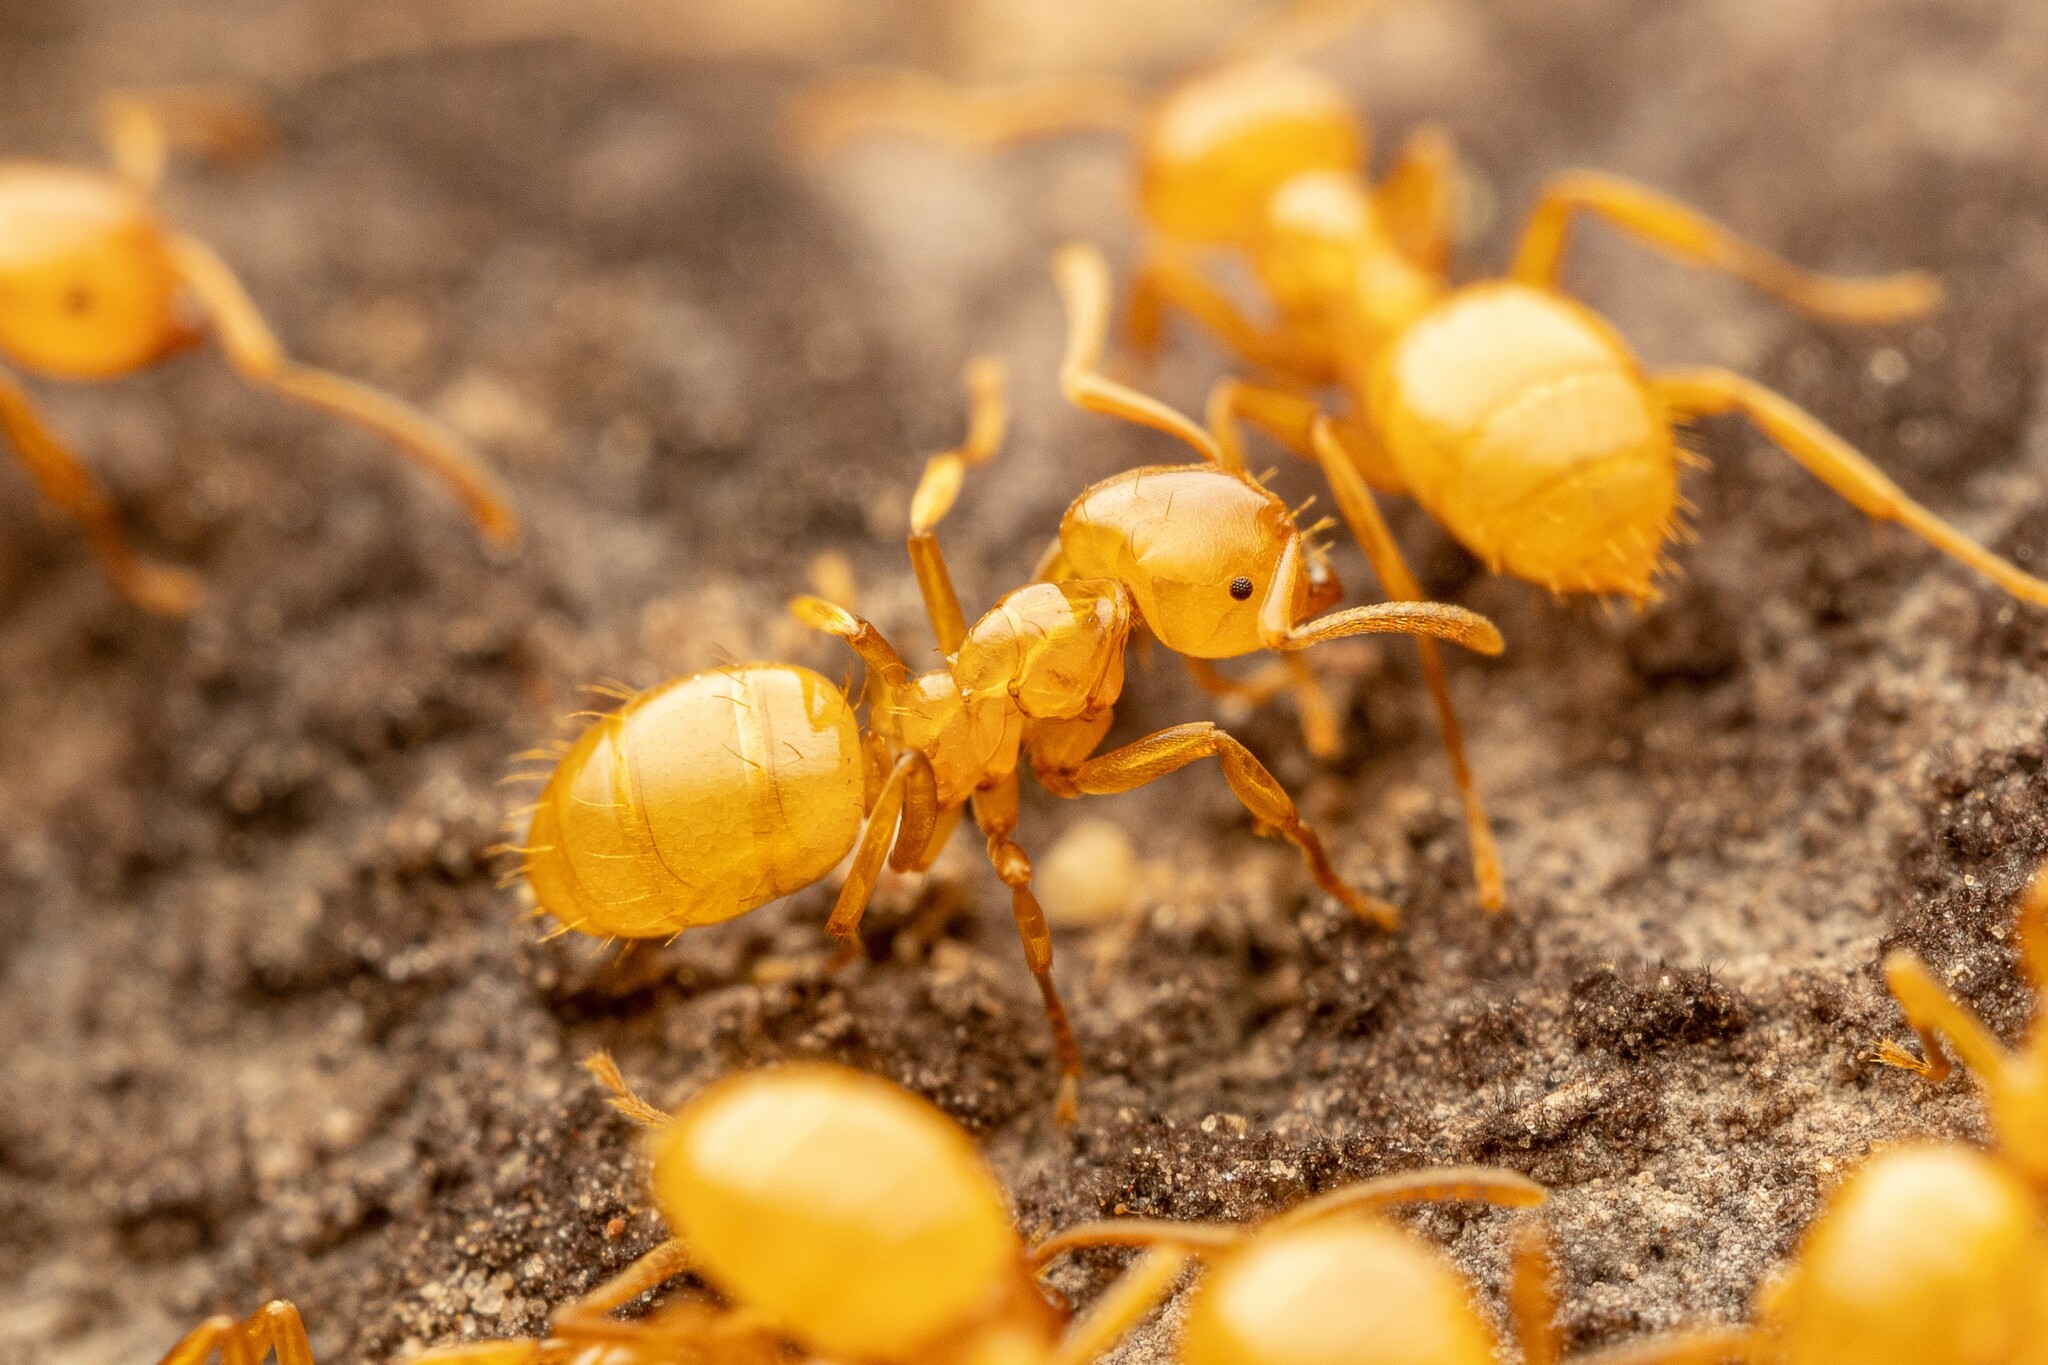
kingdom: Animalia
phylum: Arthropoda
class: Insecta
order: Hymenoptera
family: Formicidae
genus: Lasius
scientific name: Lasius arizonicus
